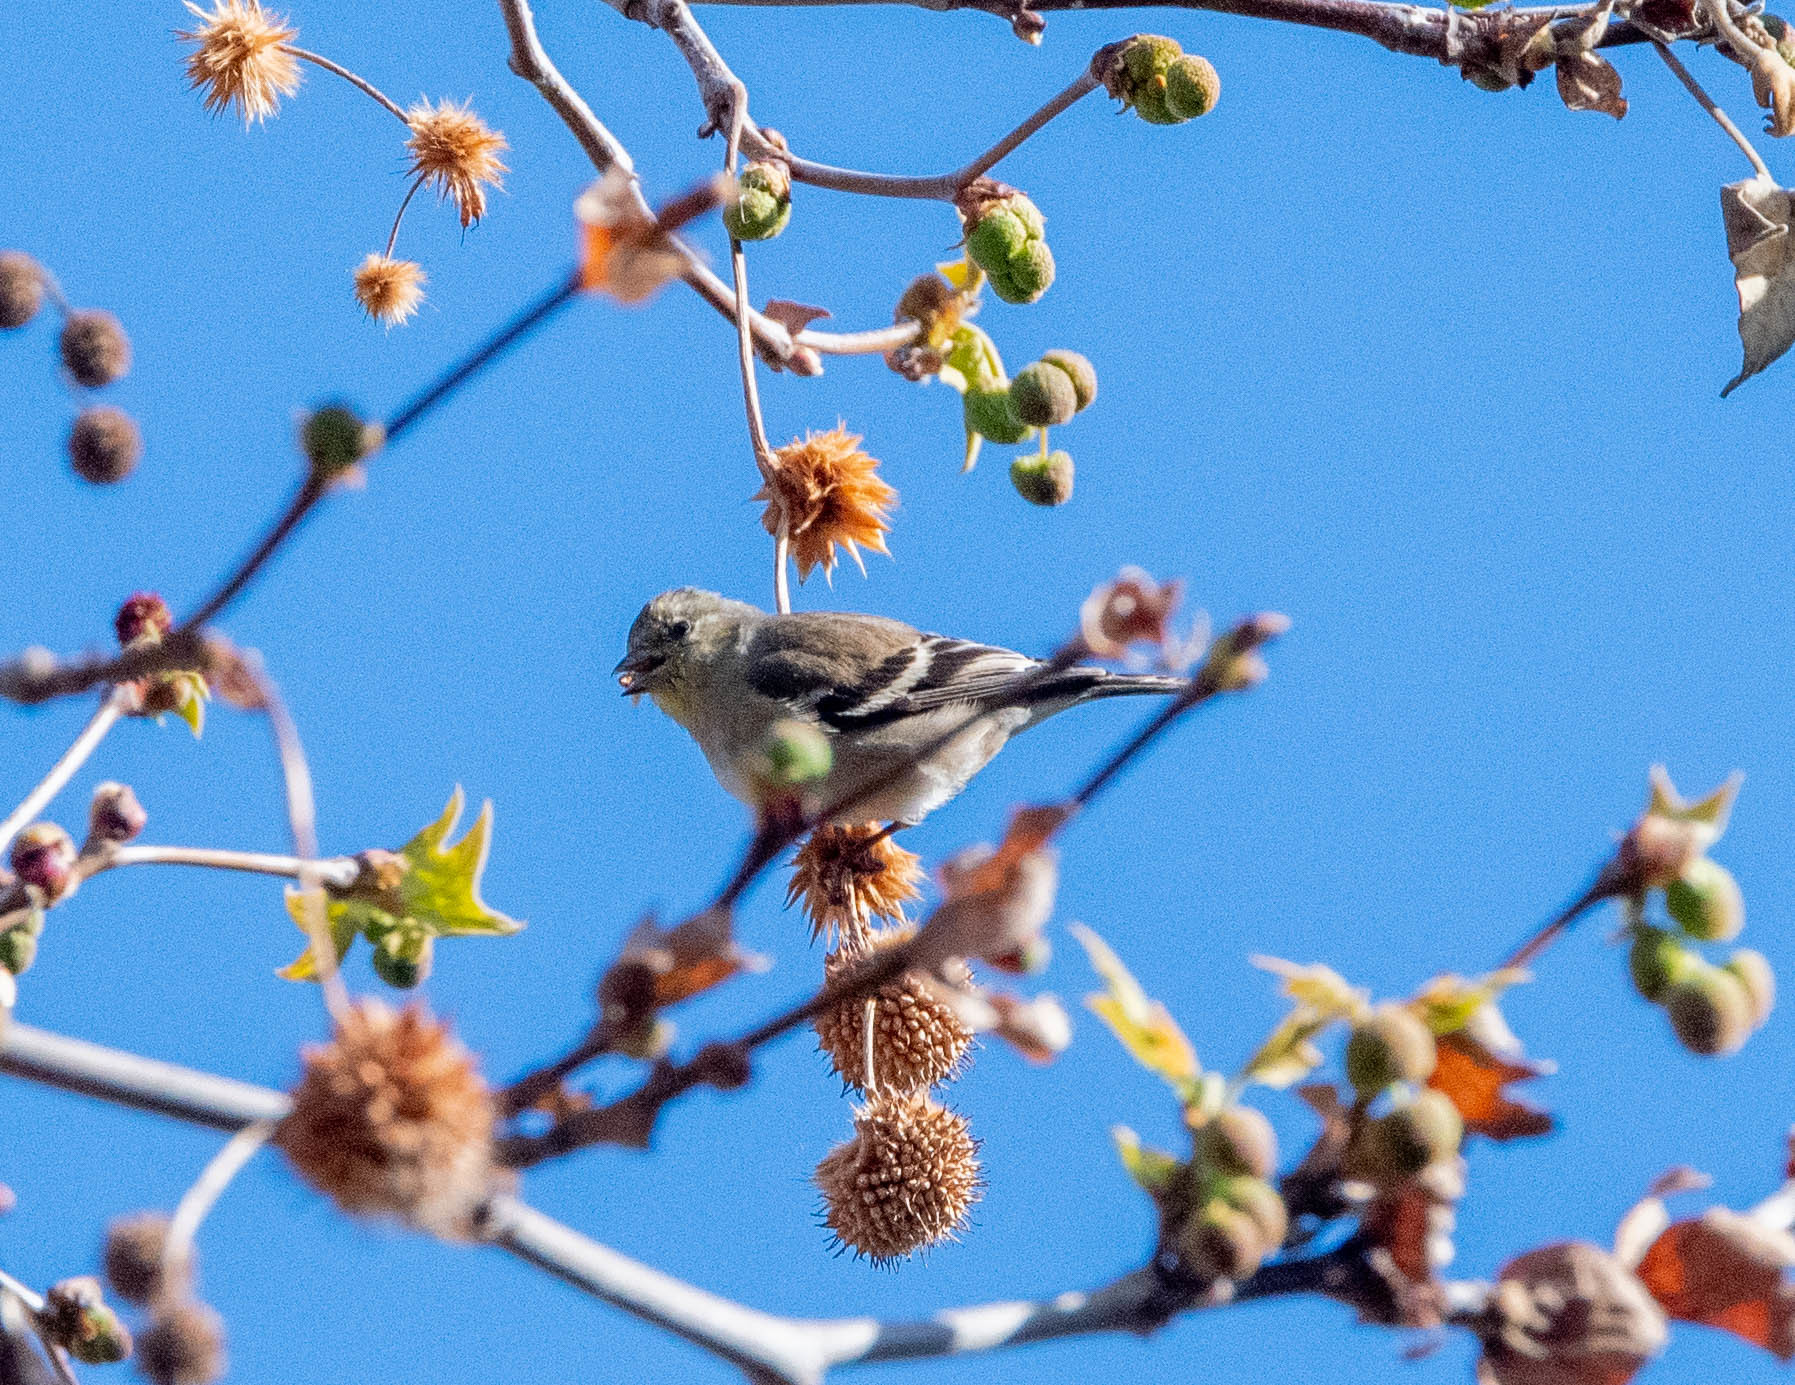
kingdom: Animalia
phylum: Chordata
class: Aves
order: Passeriformes
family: Fringillidae
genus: Spinus
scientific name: Spinus tristis
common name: American goldfinch
